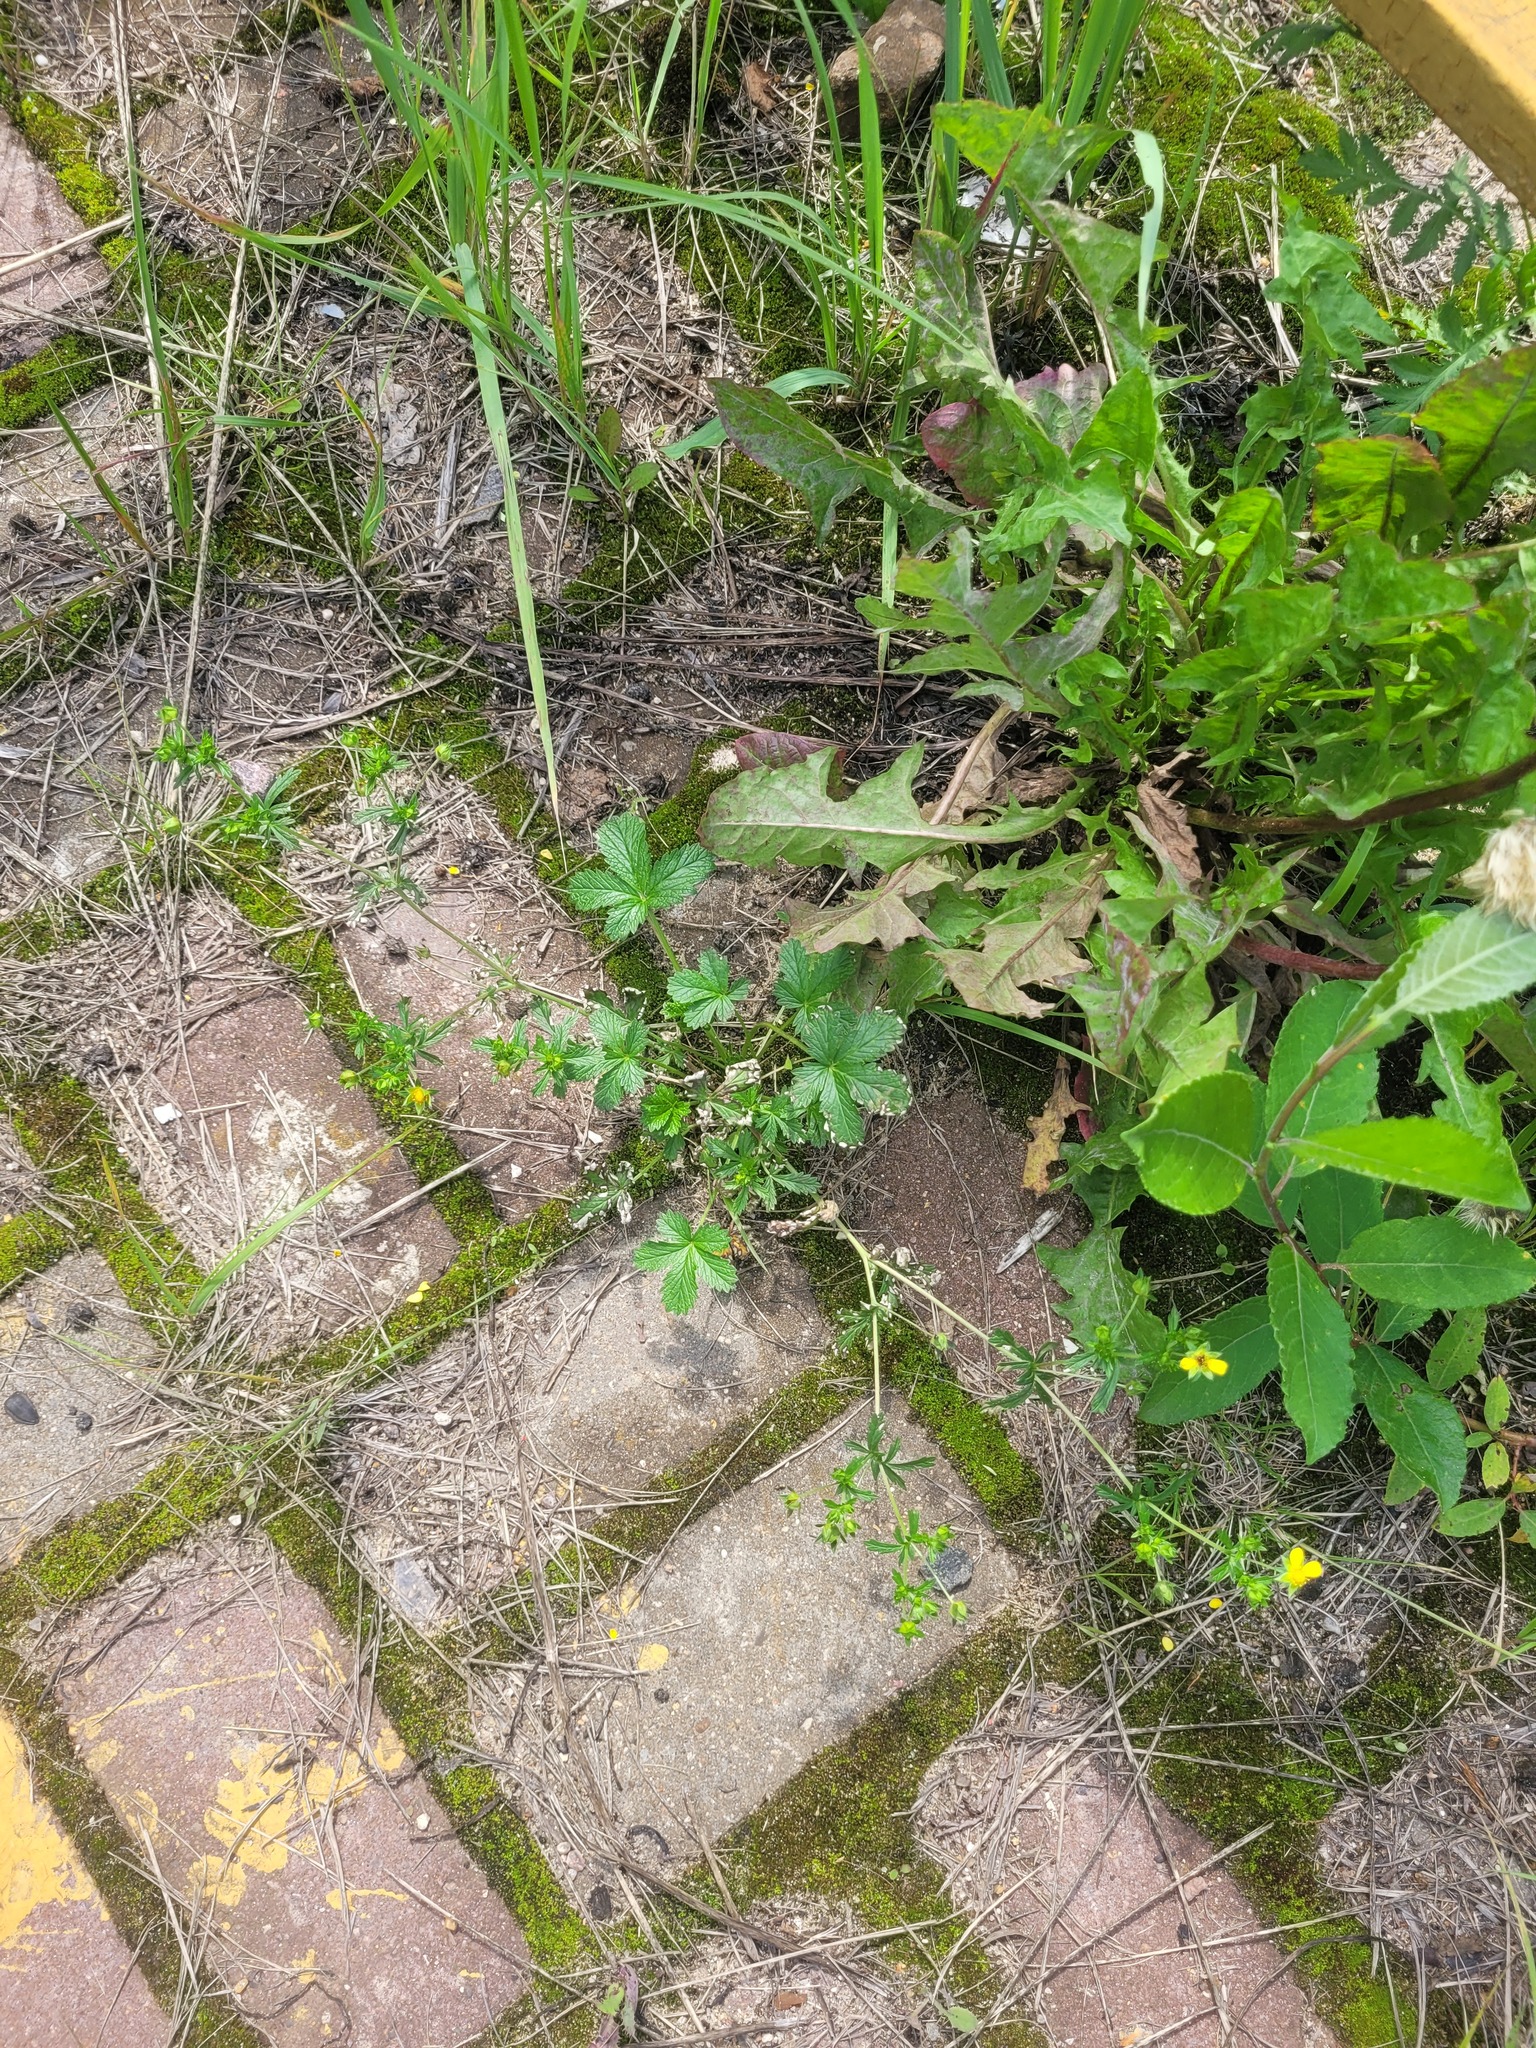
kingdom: Plantae
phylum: Tracheophyta
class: Magnoliopsida
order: Rosales
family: Rosaceae
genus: Potentilla
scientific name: Potentilla intermedia
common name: Downy cinquefoil
